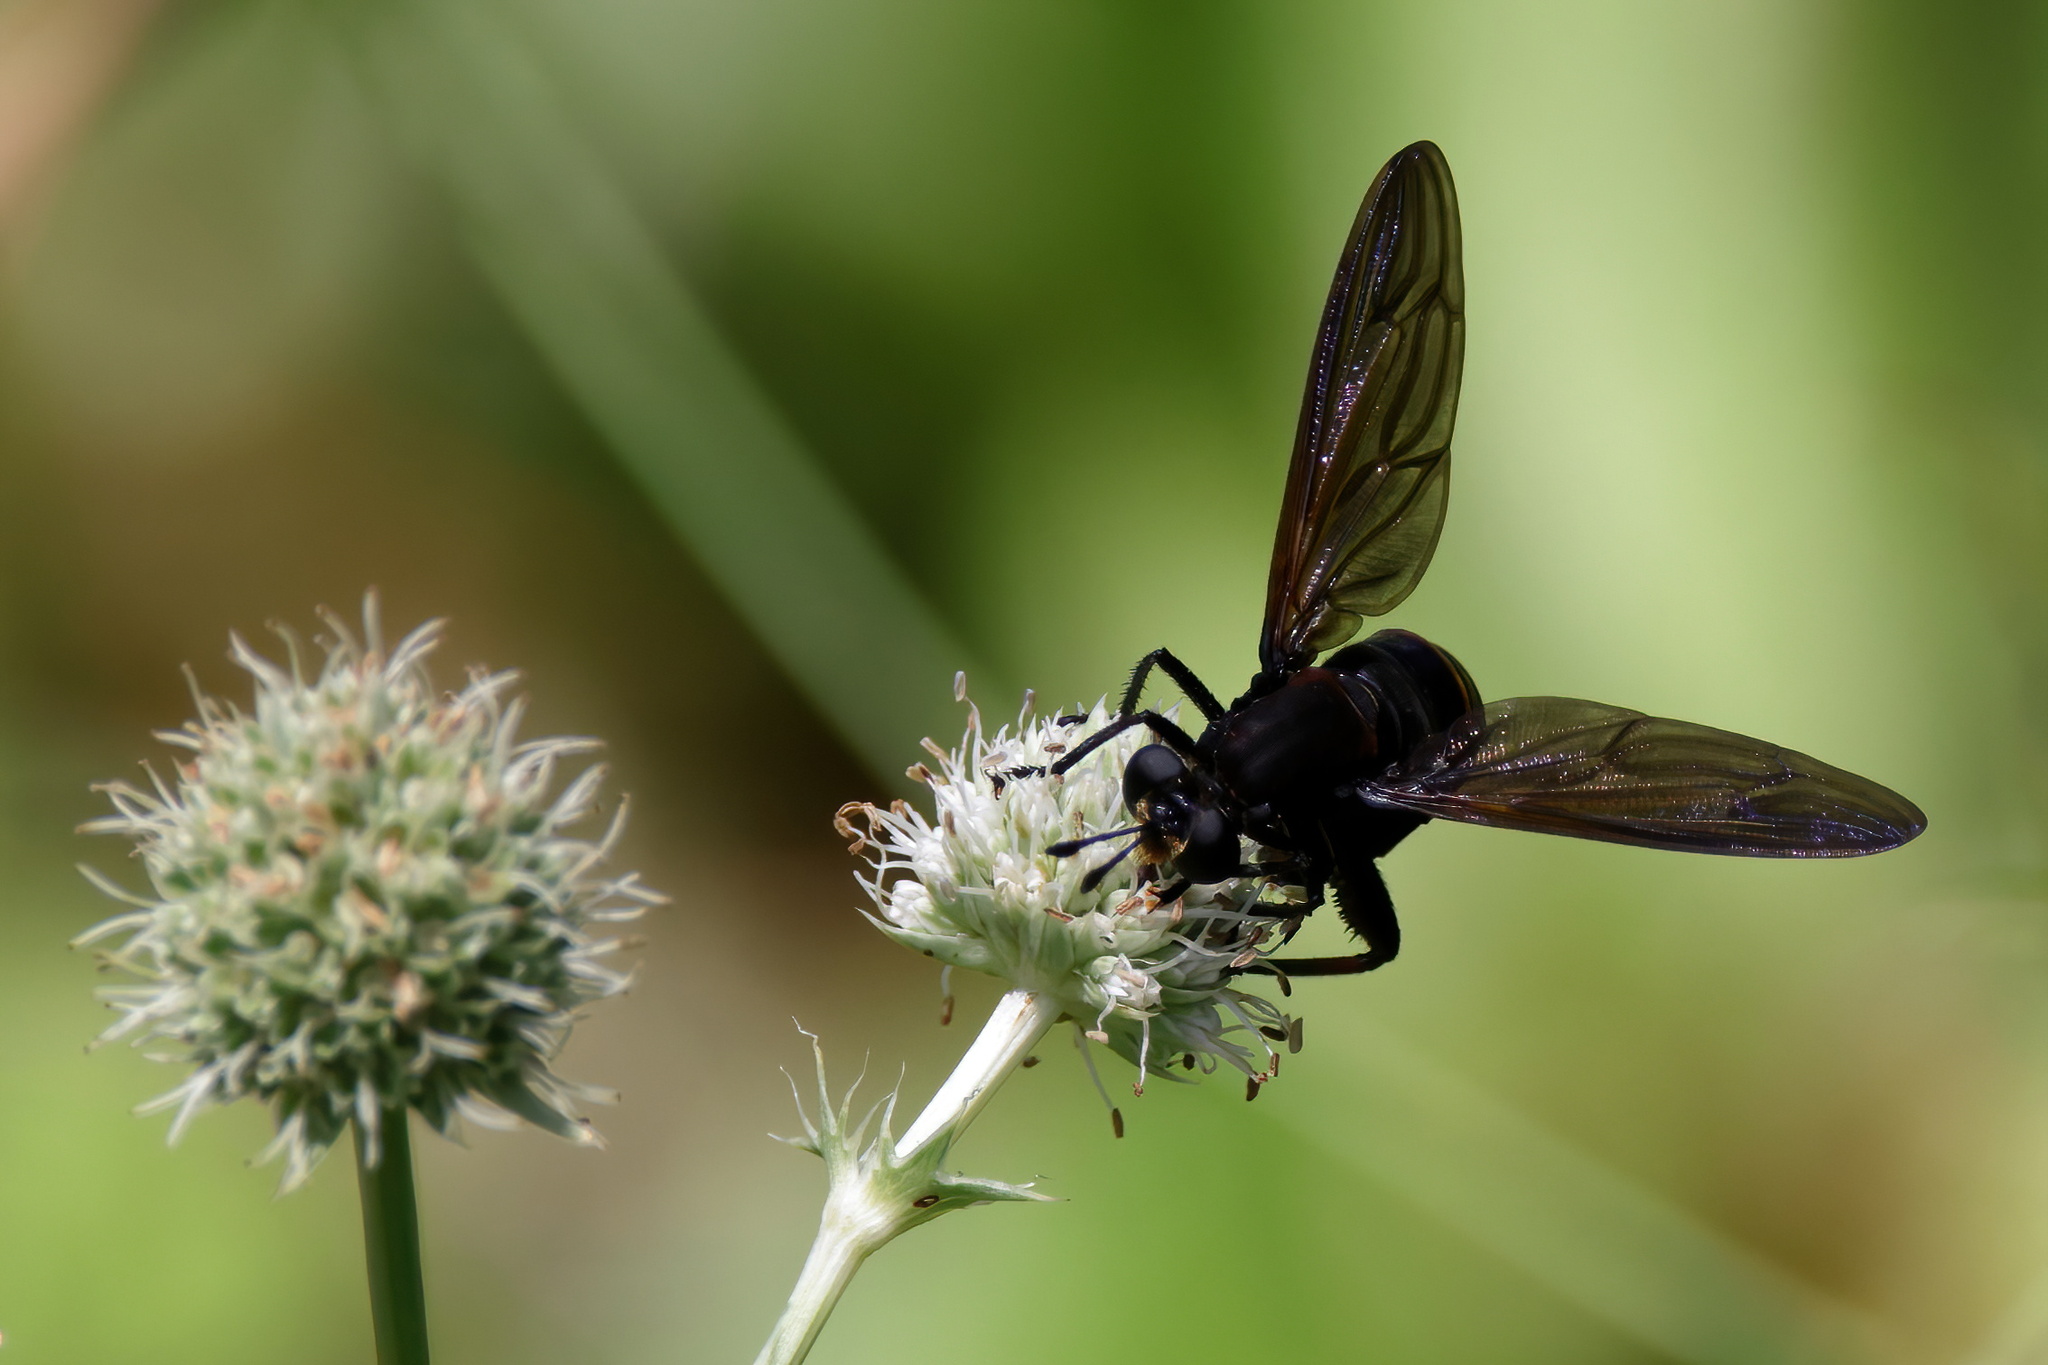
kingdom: Animalia
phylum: Arthropoda
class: Insecta
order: Diptera
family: Mydidae
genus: Mydas
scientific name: Mydas fulvifrons
